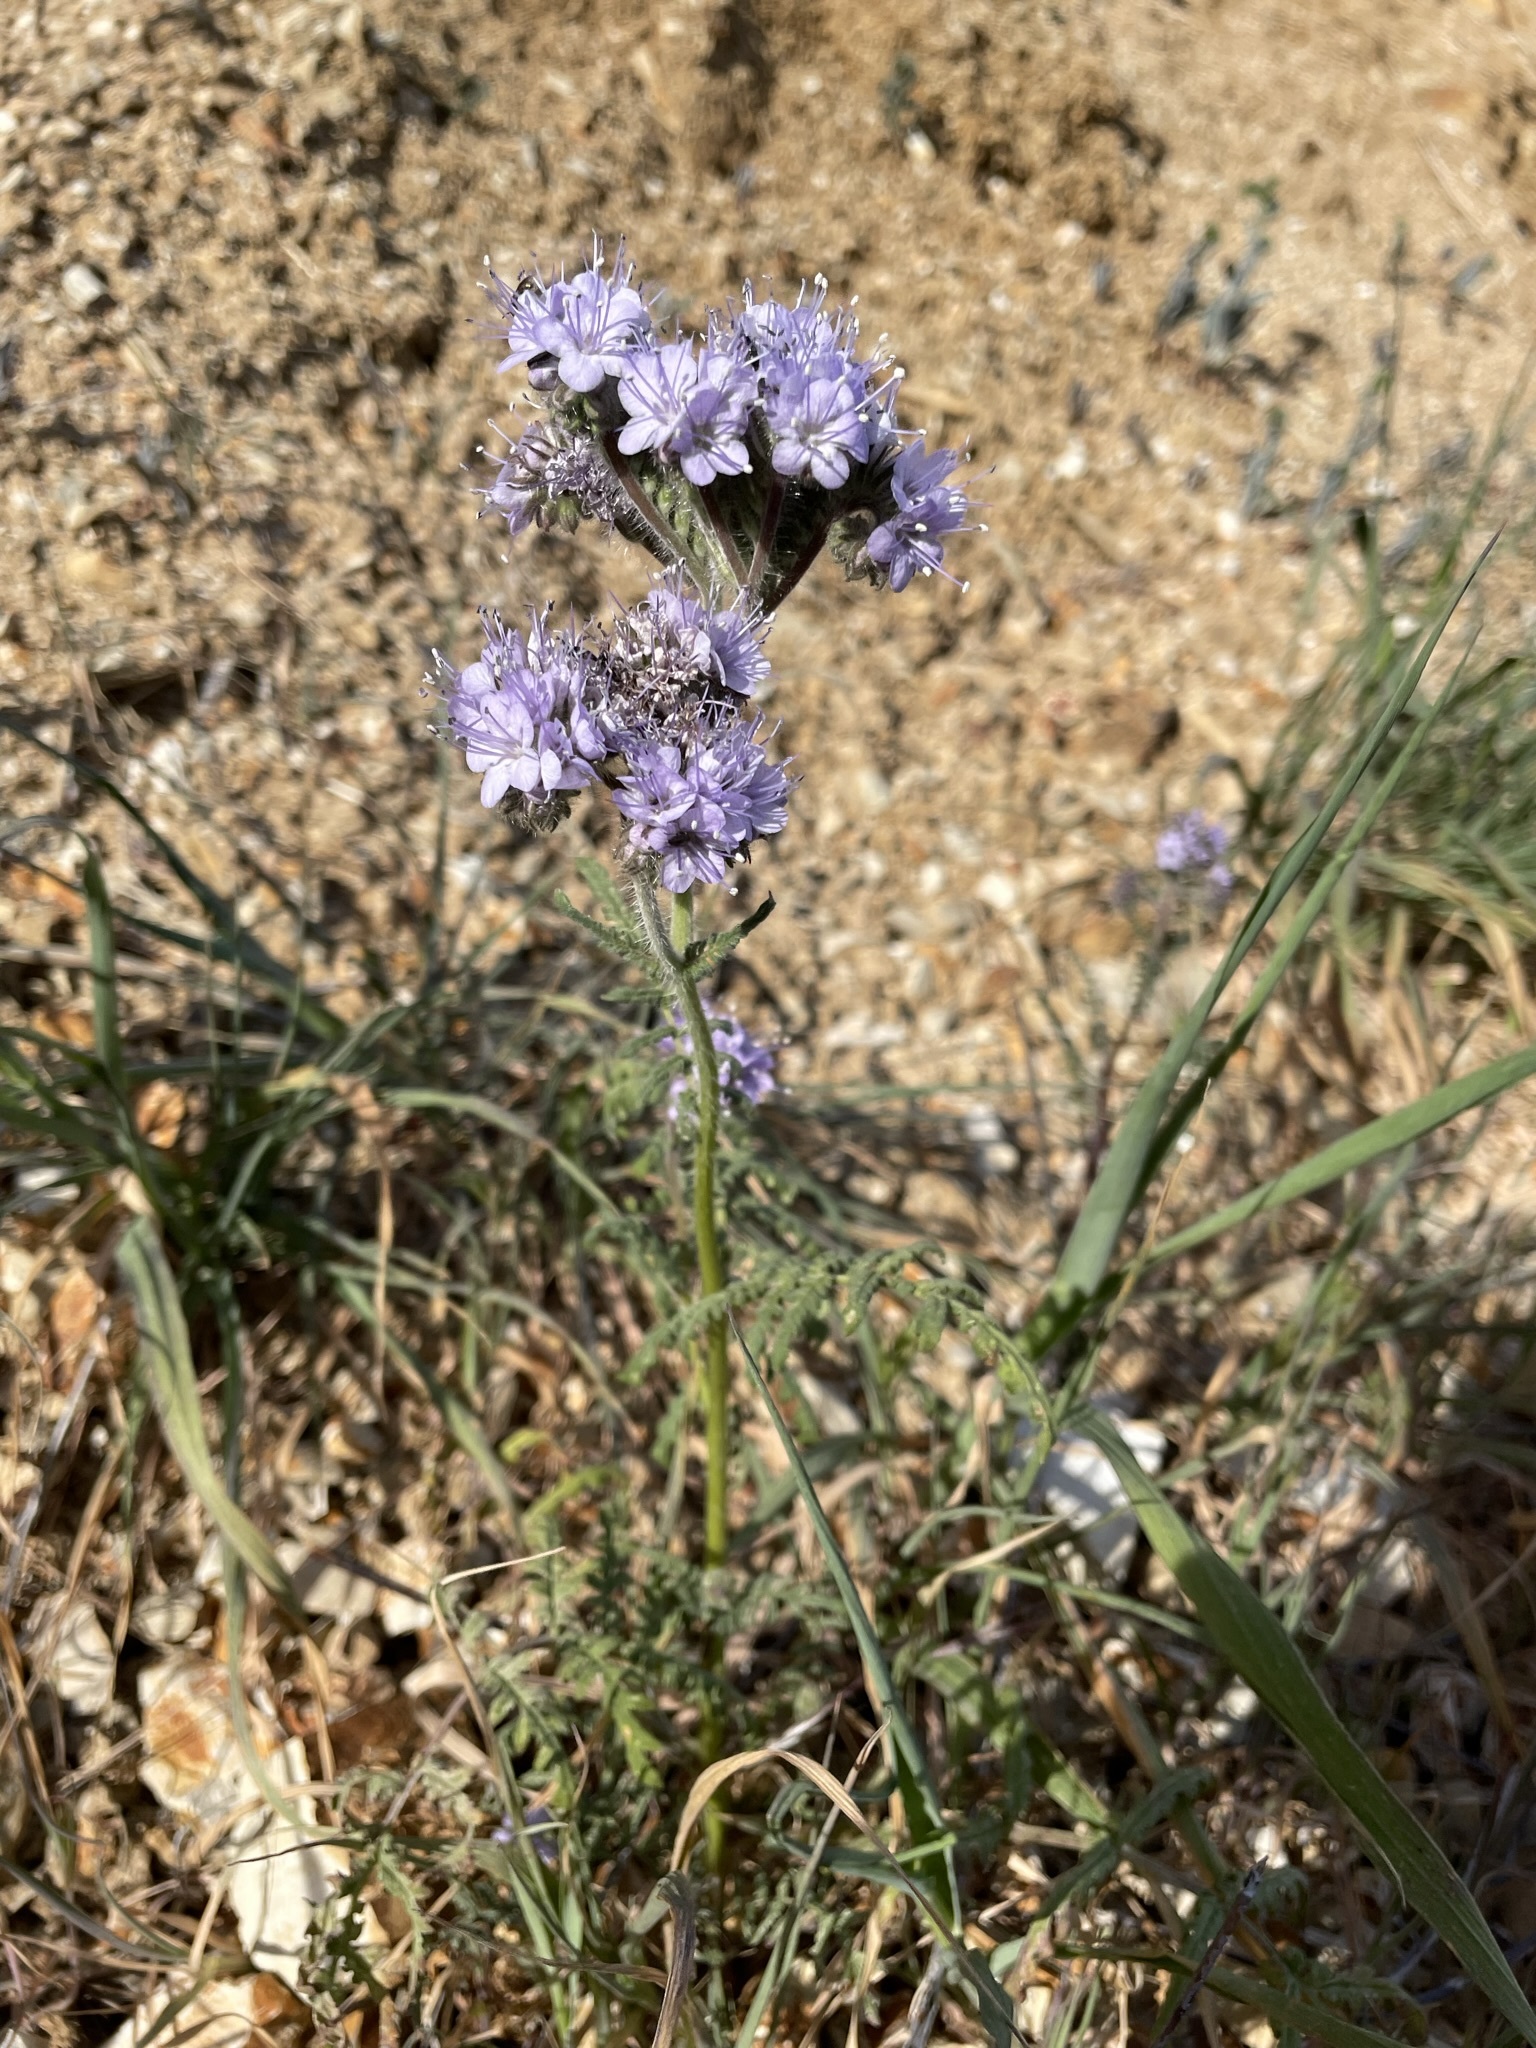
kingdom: Plantae
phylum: Tracheophyta
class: Magnoliopsida
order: Boraginales
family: Hydrophyllaceae
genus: Phacelia
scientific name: Phacelia tanacetifolia
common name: Phacelia
